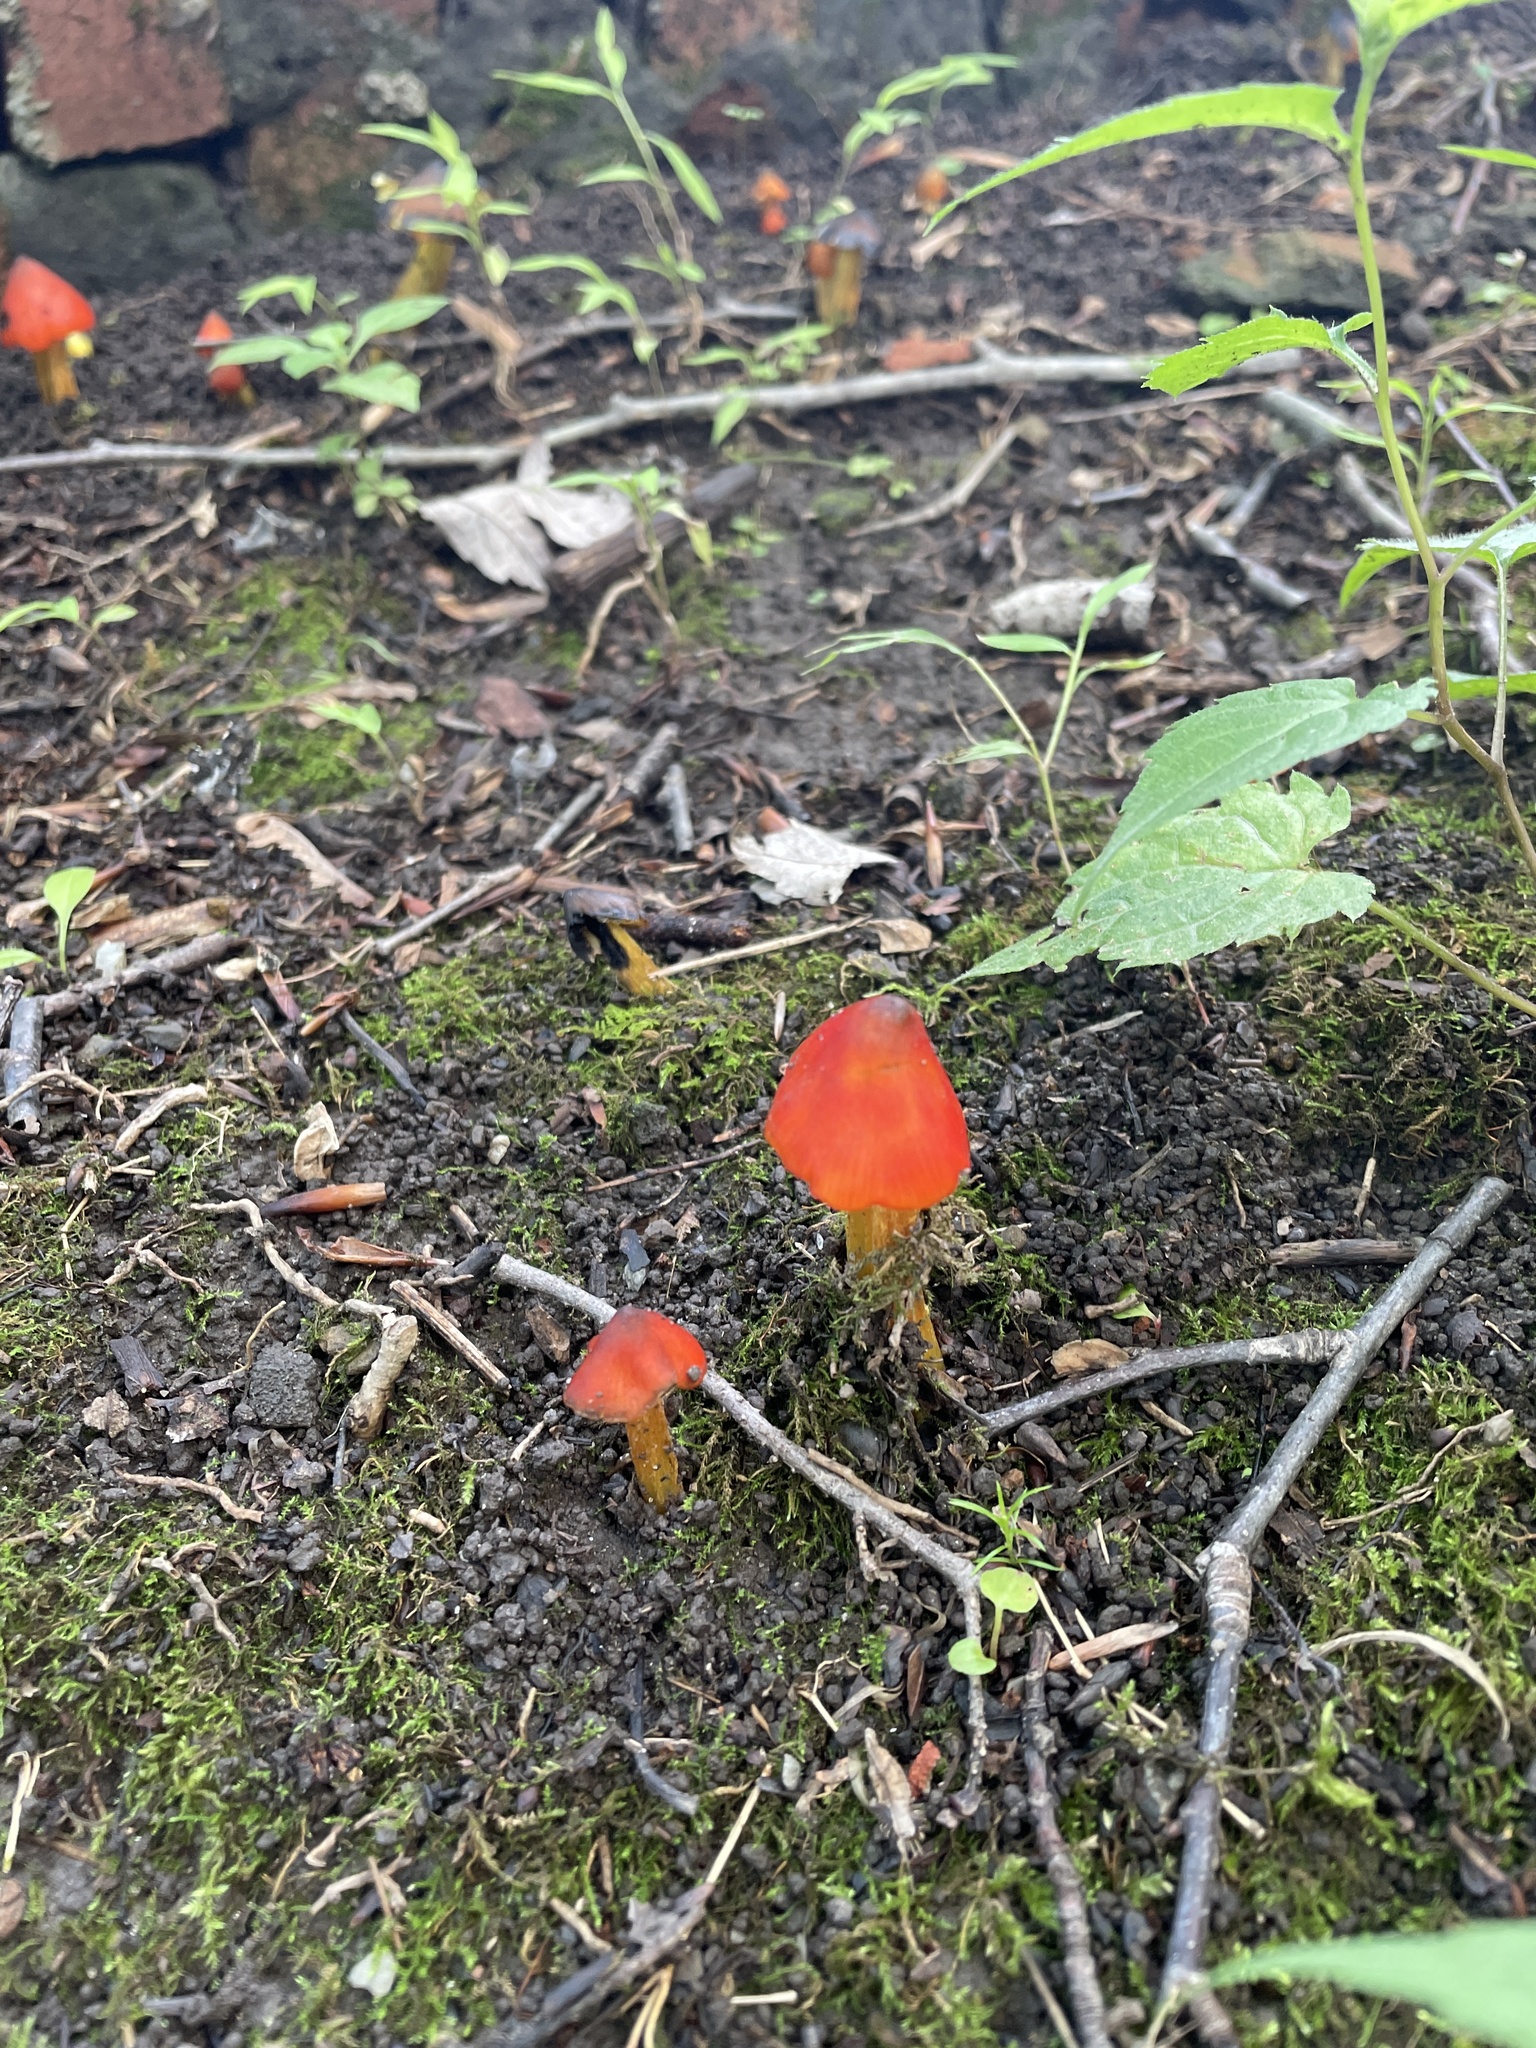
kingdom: Fungi
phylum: Basidiomycota
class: Agaricomycetes
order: Agaricales
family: Hygrophoraceae
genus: Hygrocybe
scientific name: Hygrocybe conica
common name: Blackening wax-cap
